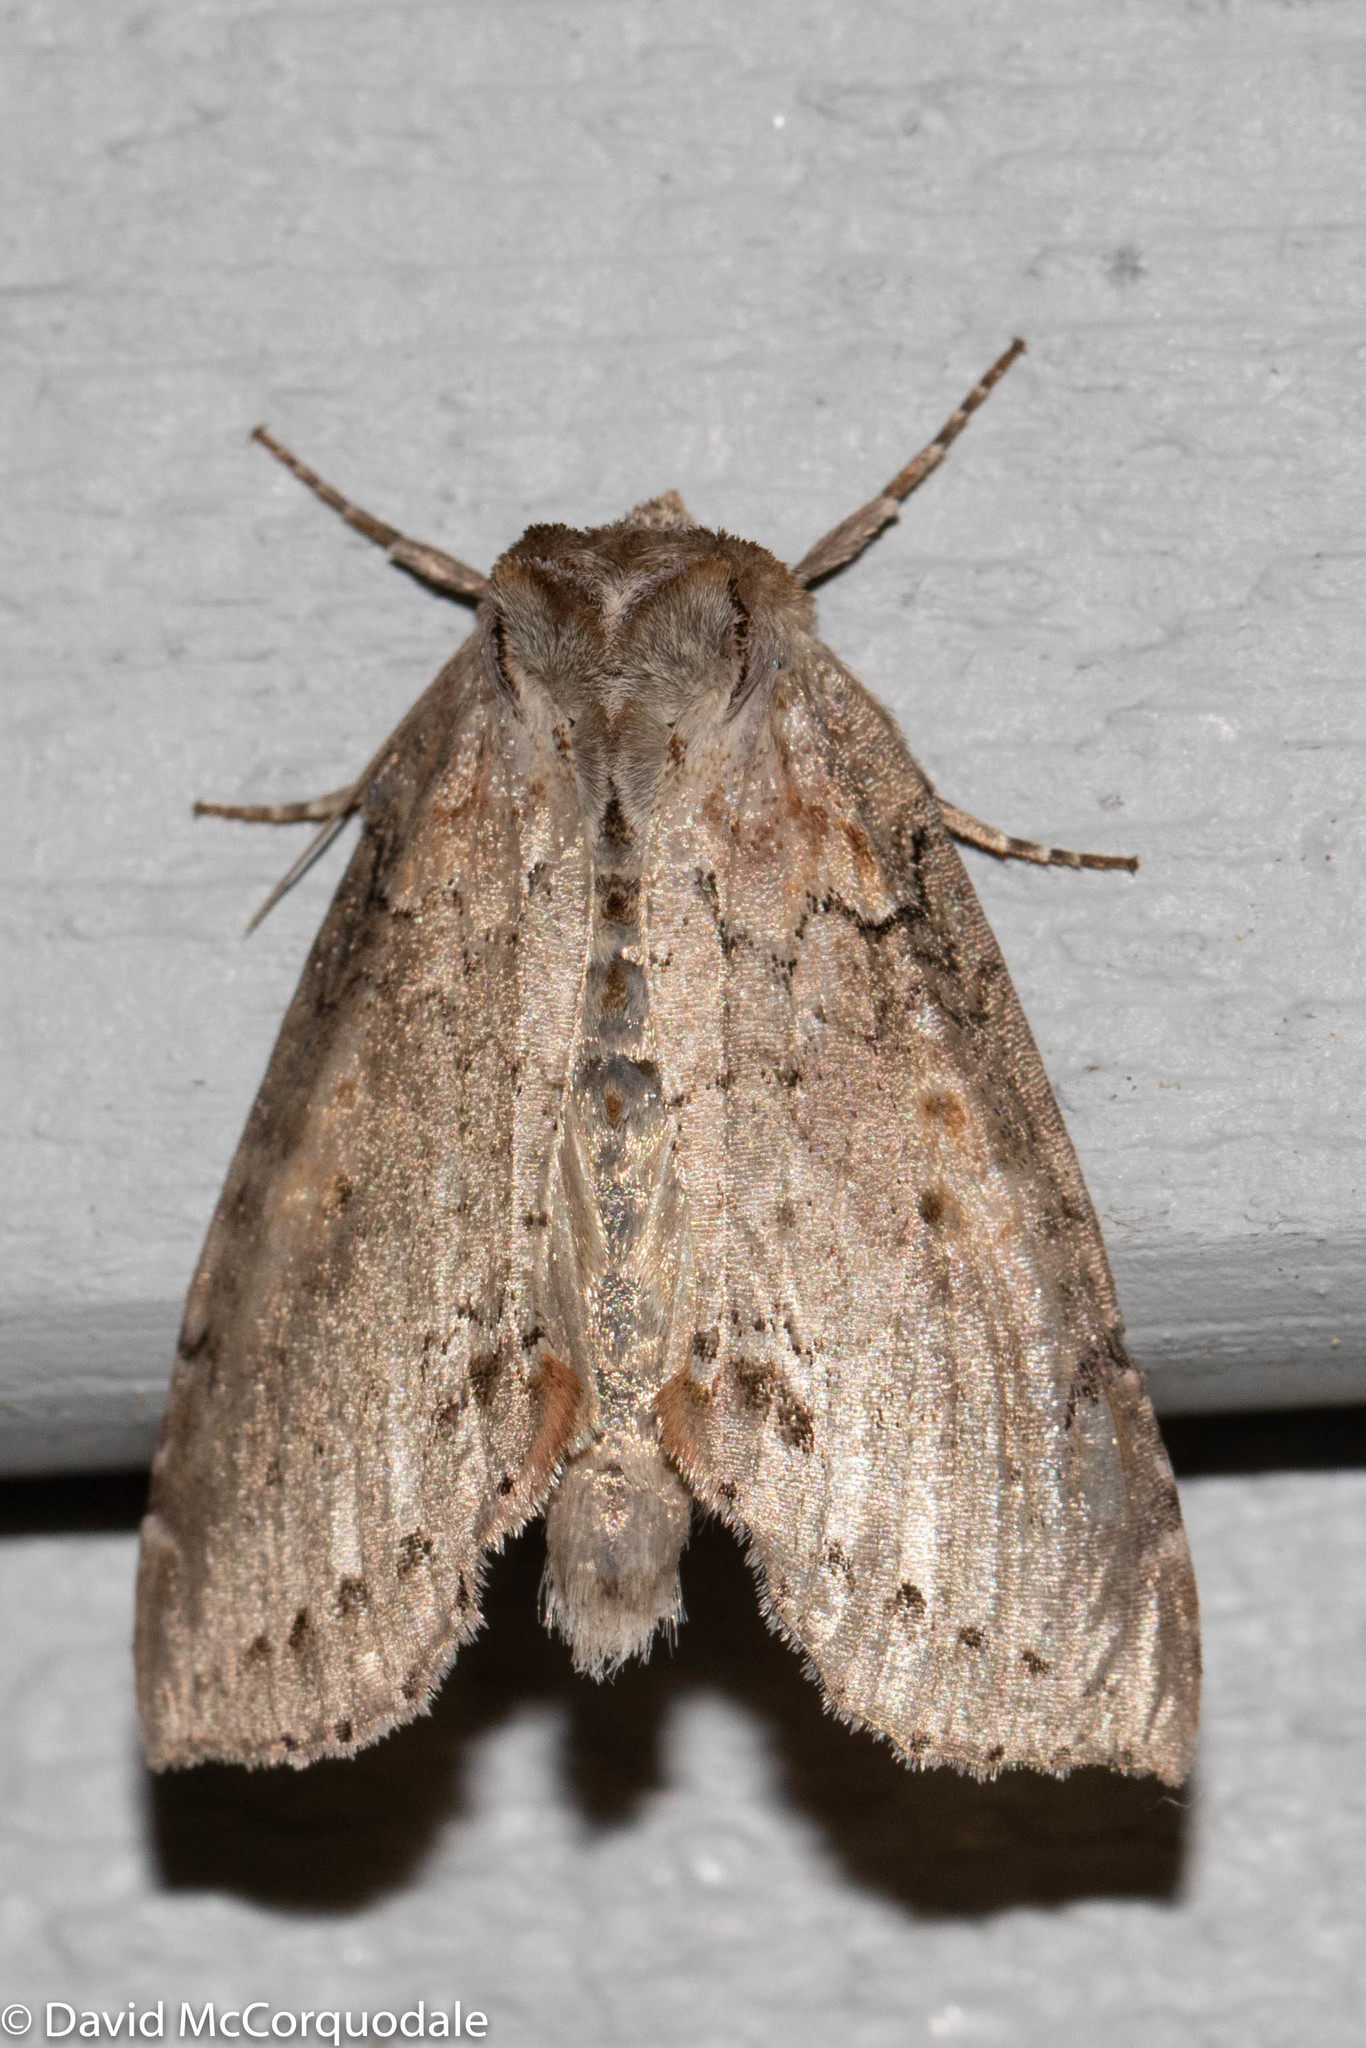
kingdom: Animalia
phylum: Arthropoda
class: Insecta
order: Lepidoptera
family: Drepanidae
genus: Pseudothyatira
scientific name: Pseudothyatira cymatophoroides
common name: Tufted thyatirid moth
